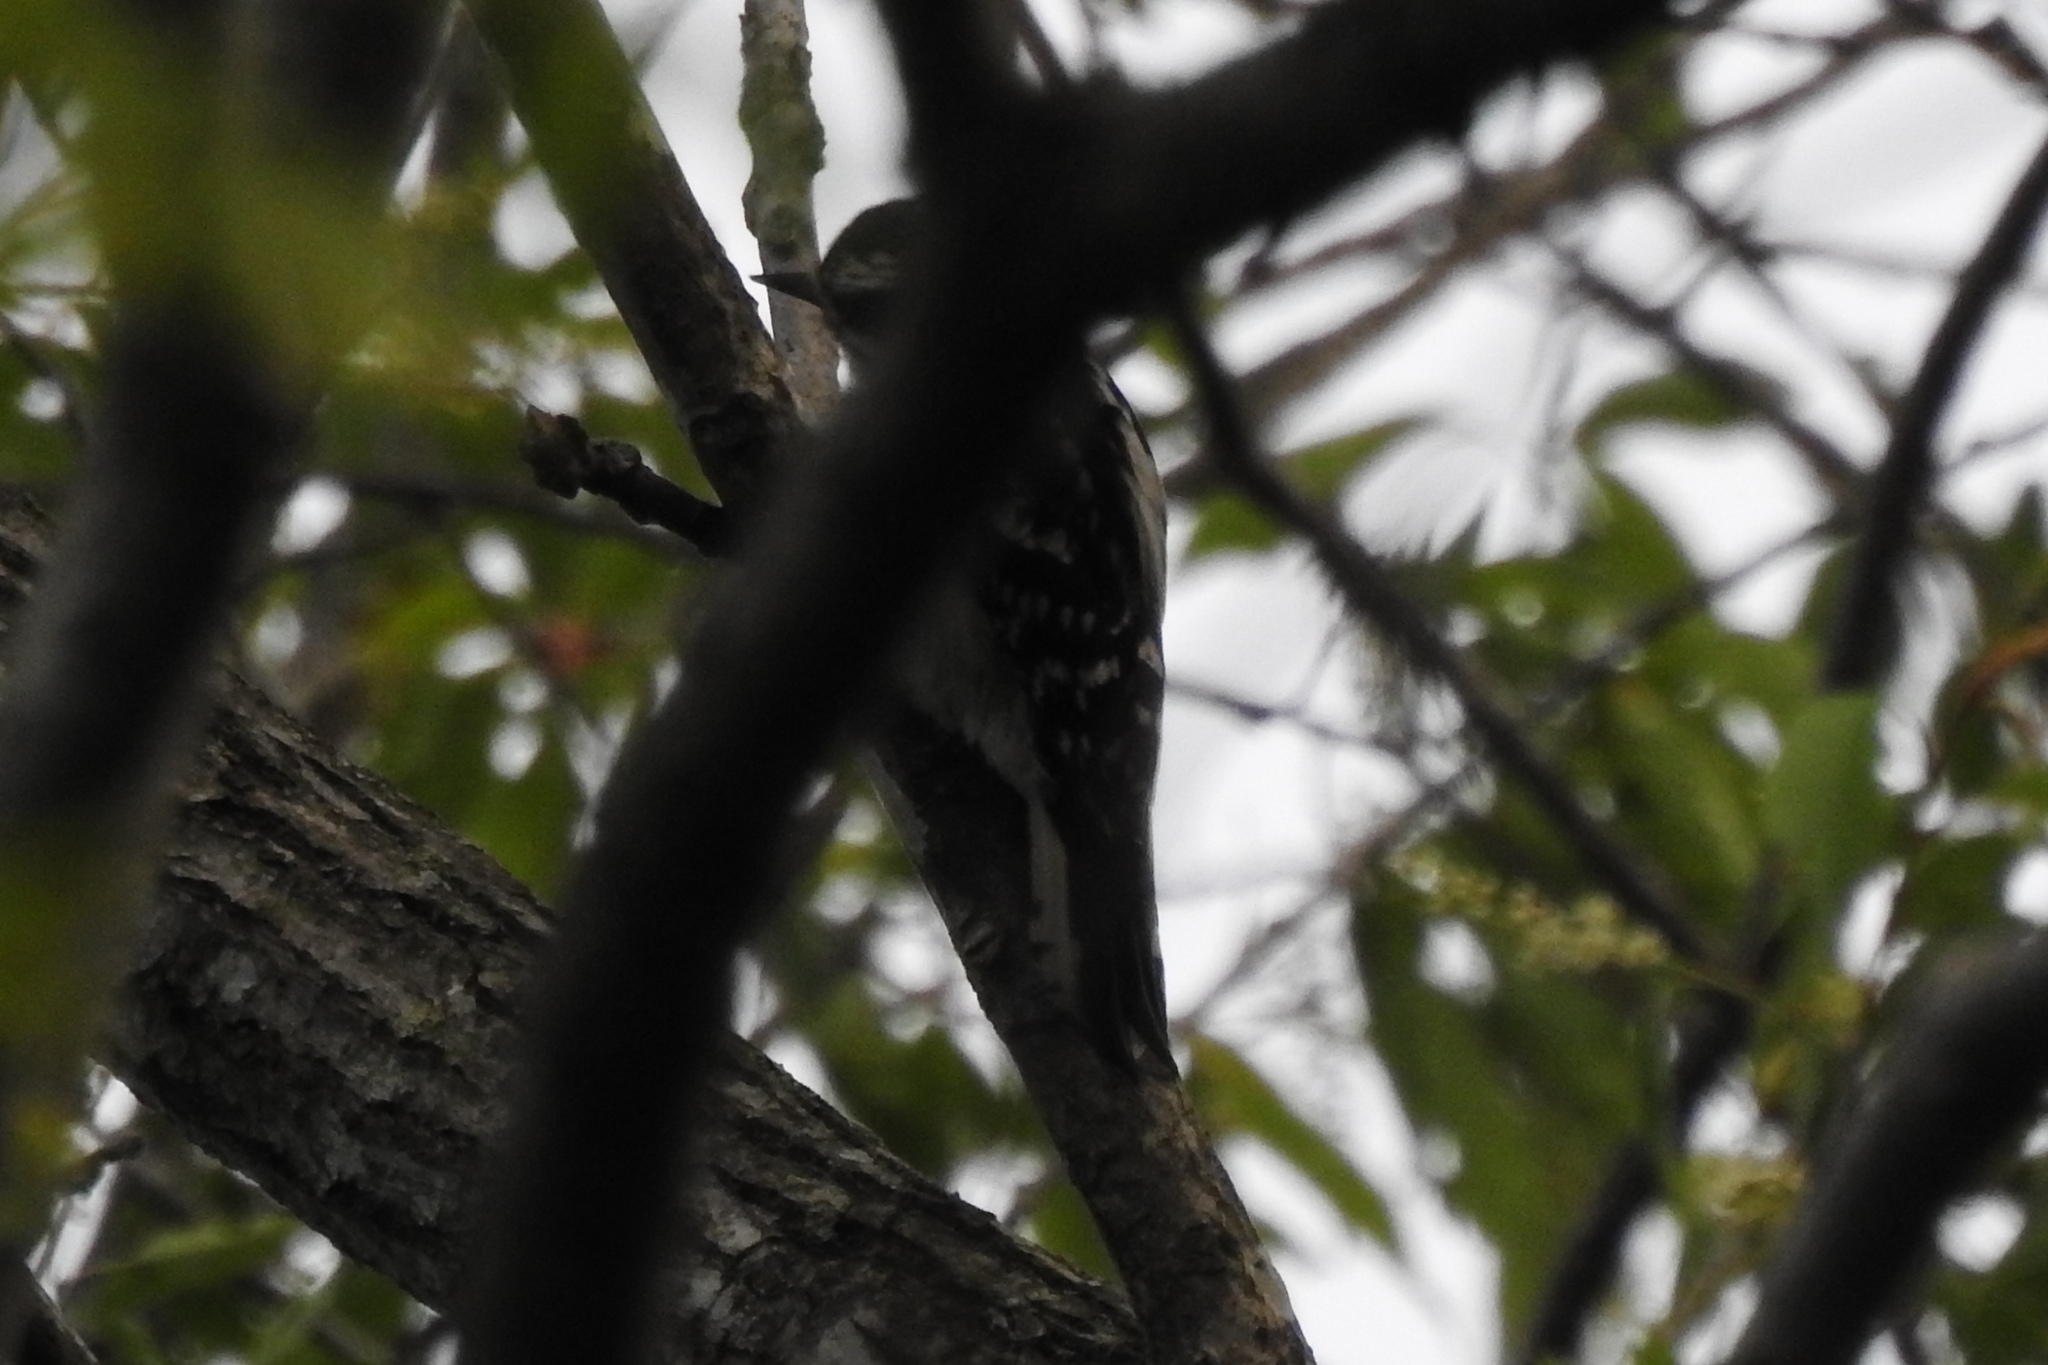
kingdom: Animalia
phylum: Chordata
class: Aves
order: Piciformes
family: Picidae
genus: Dryobates
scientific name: Dryobates pubescens
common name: Downy woodpecker
